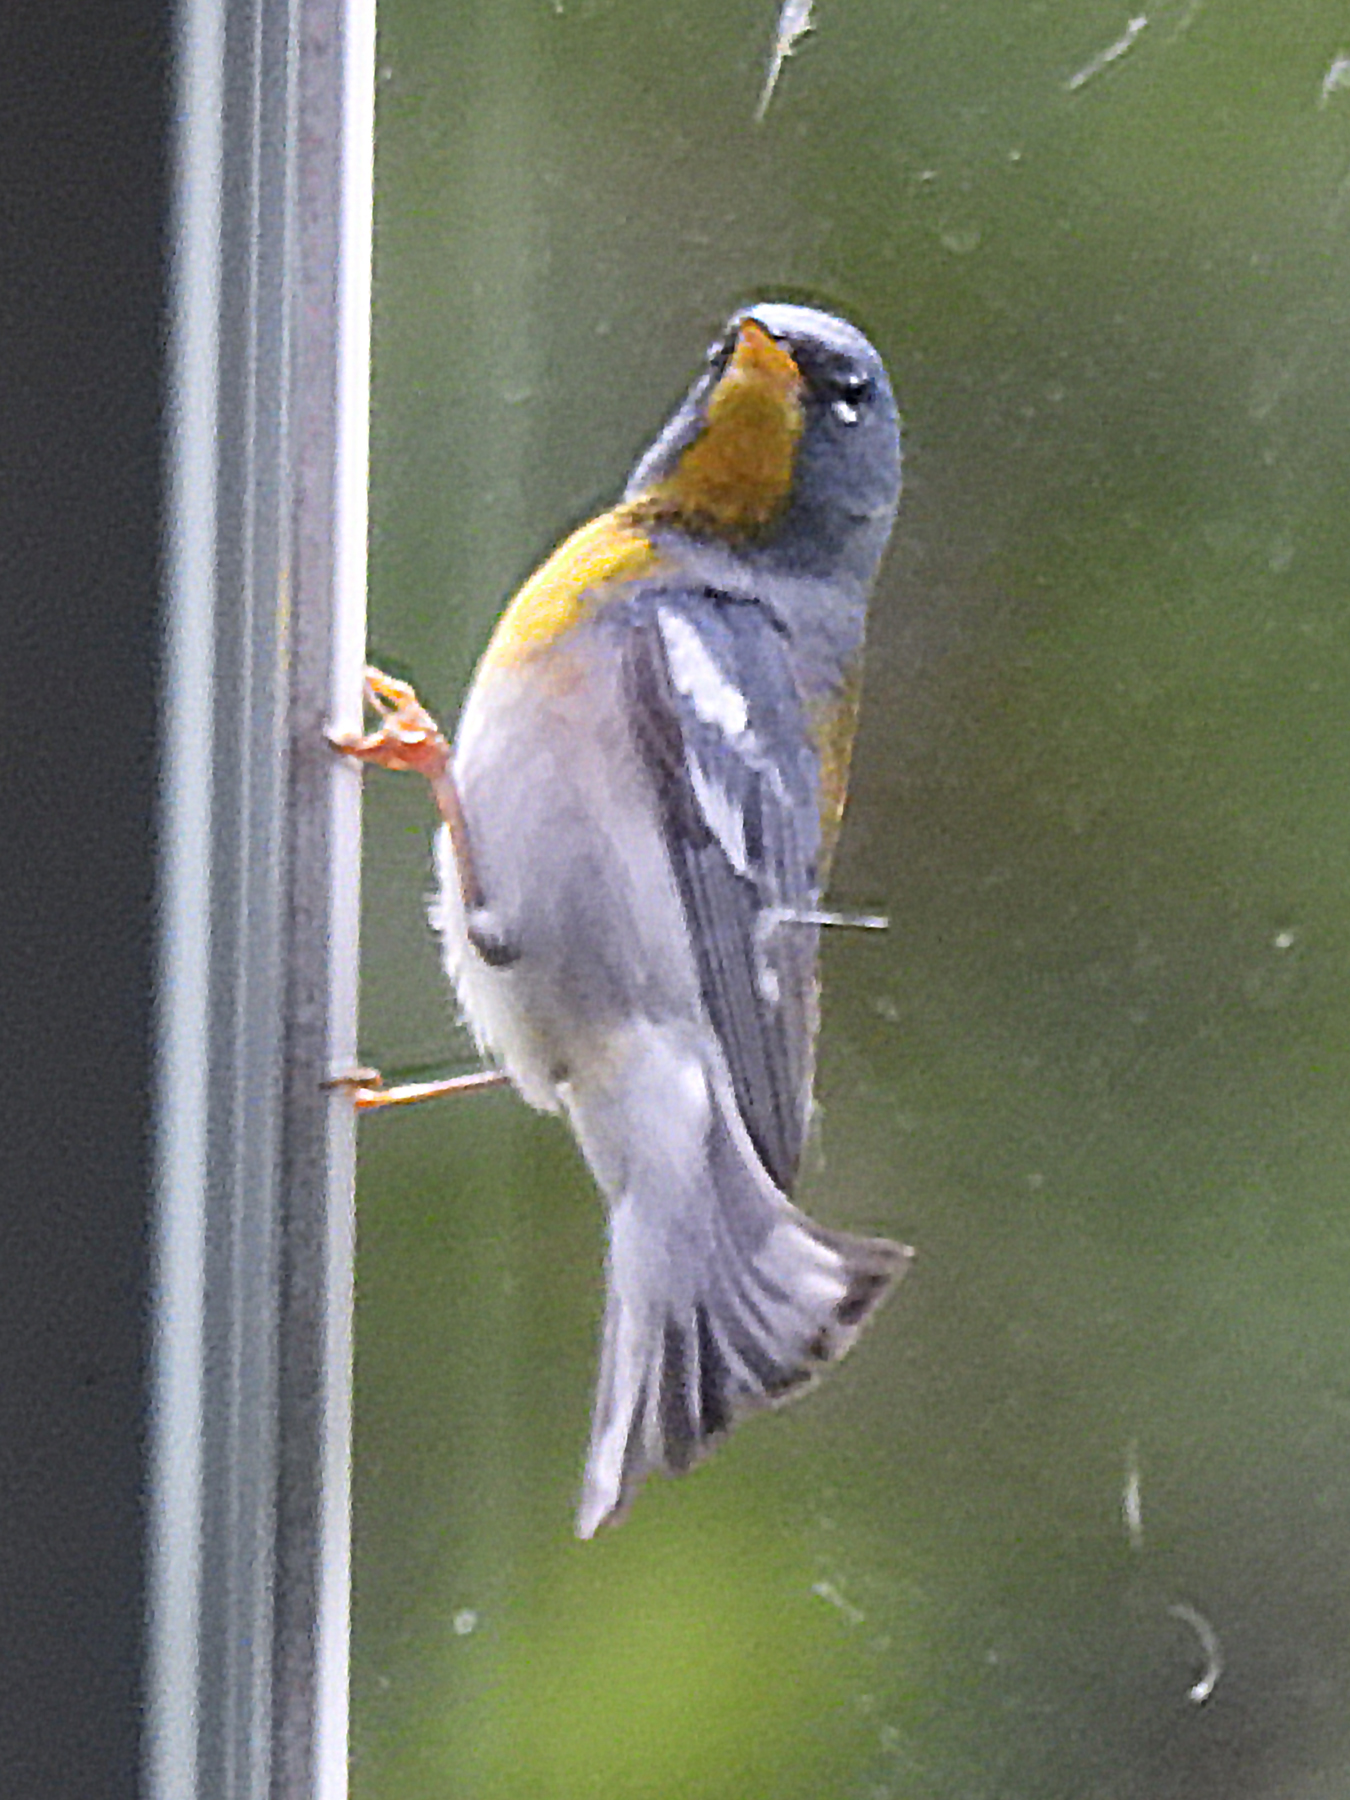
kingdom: Animalia
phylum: Chordata
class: Aves
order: Passeriformes
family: Parulidae
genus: Setophaga
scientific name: Setophaga americana
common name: Northern parula
